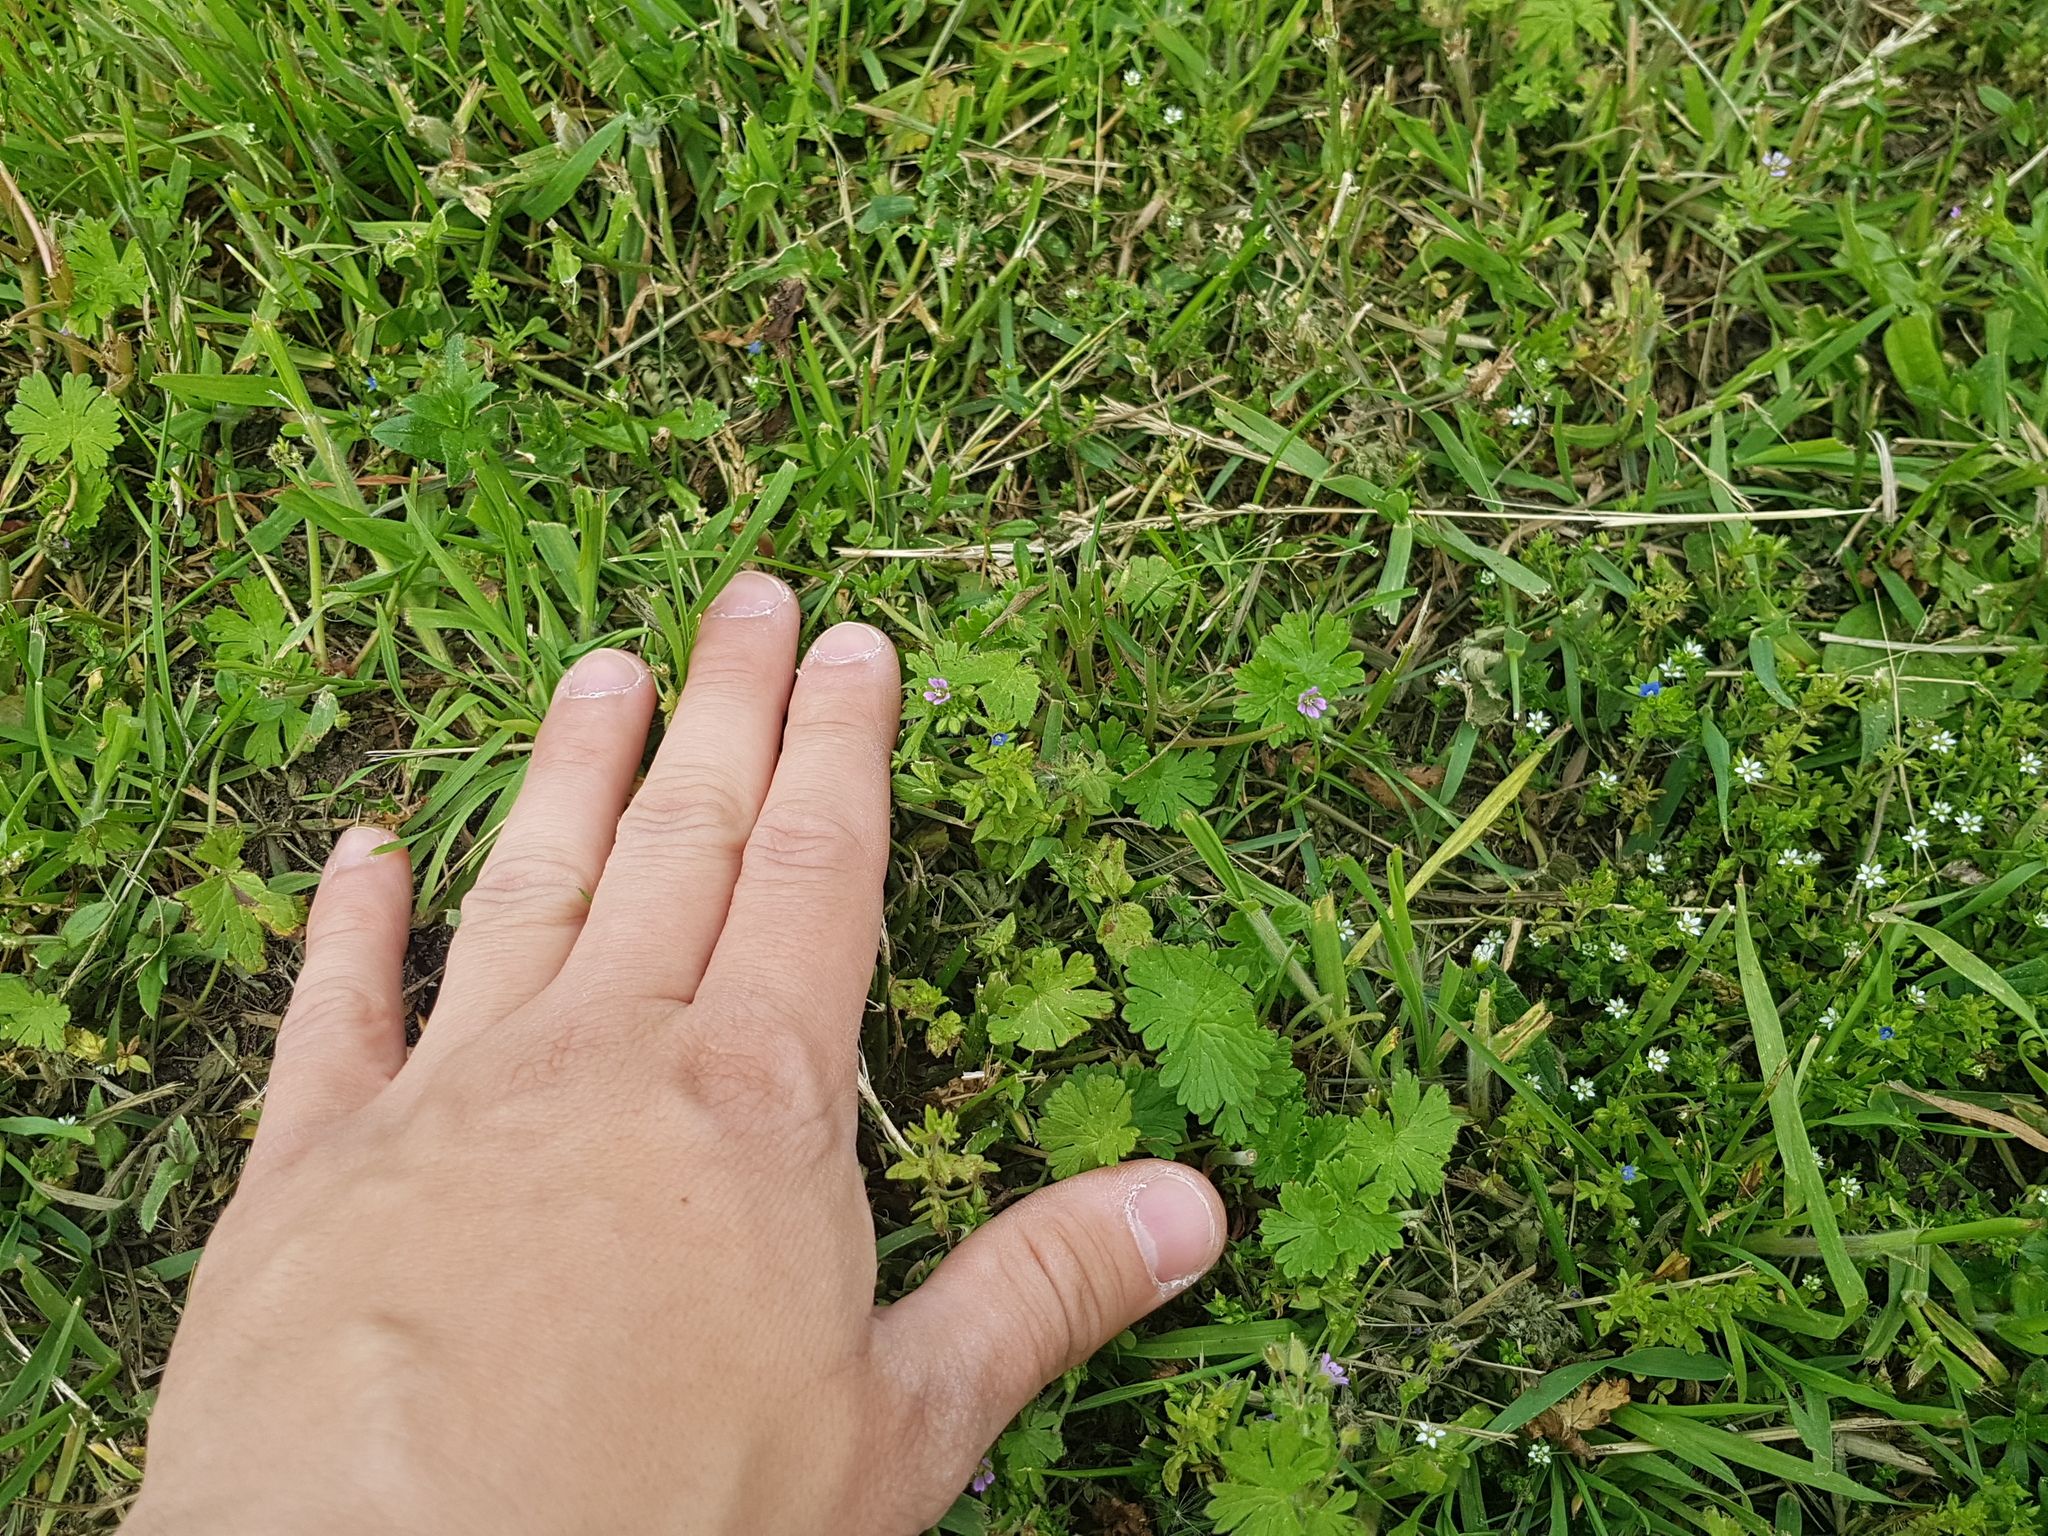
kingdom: Plantae
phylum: Tracheophyta
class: Magnoliopsida
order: Geraniales
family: Geraniaceae
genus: Geranium
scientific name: Geranium pusillum
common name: Small geranium
